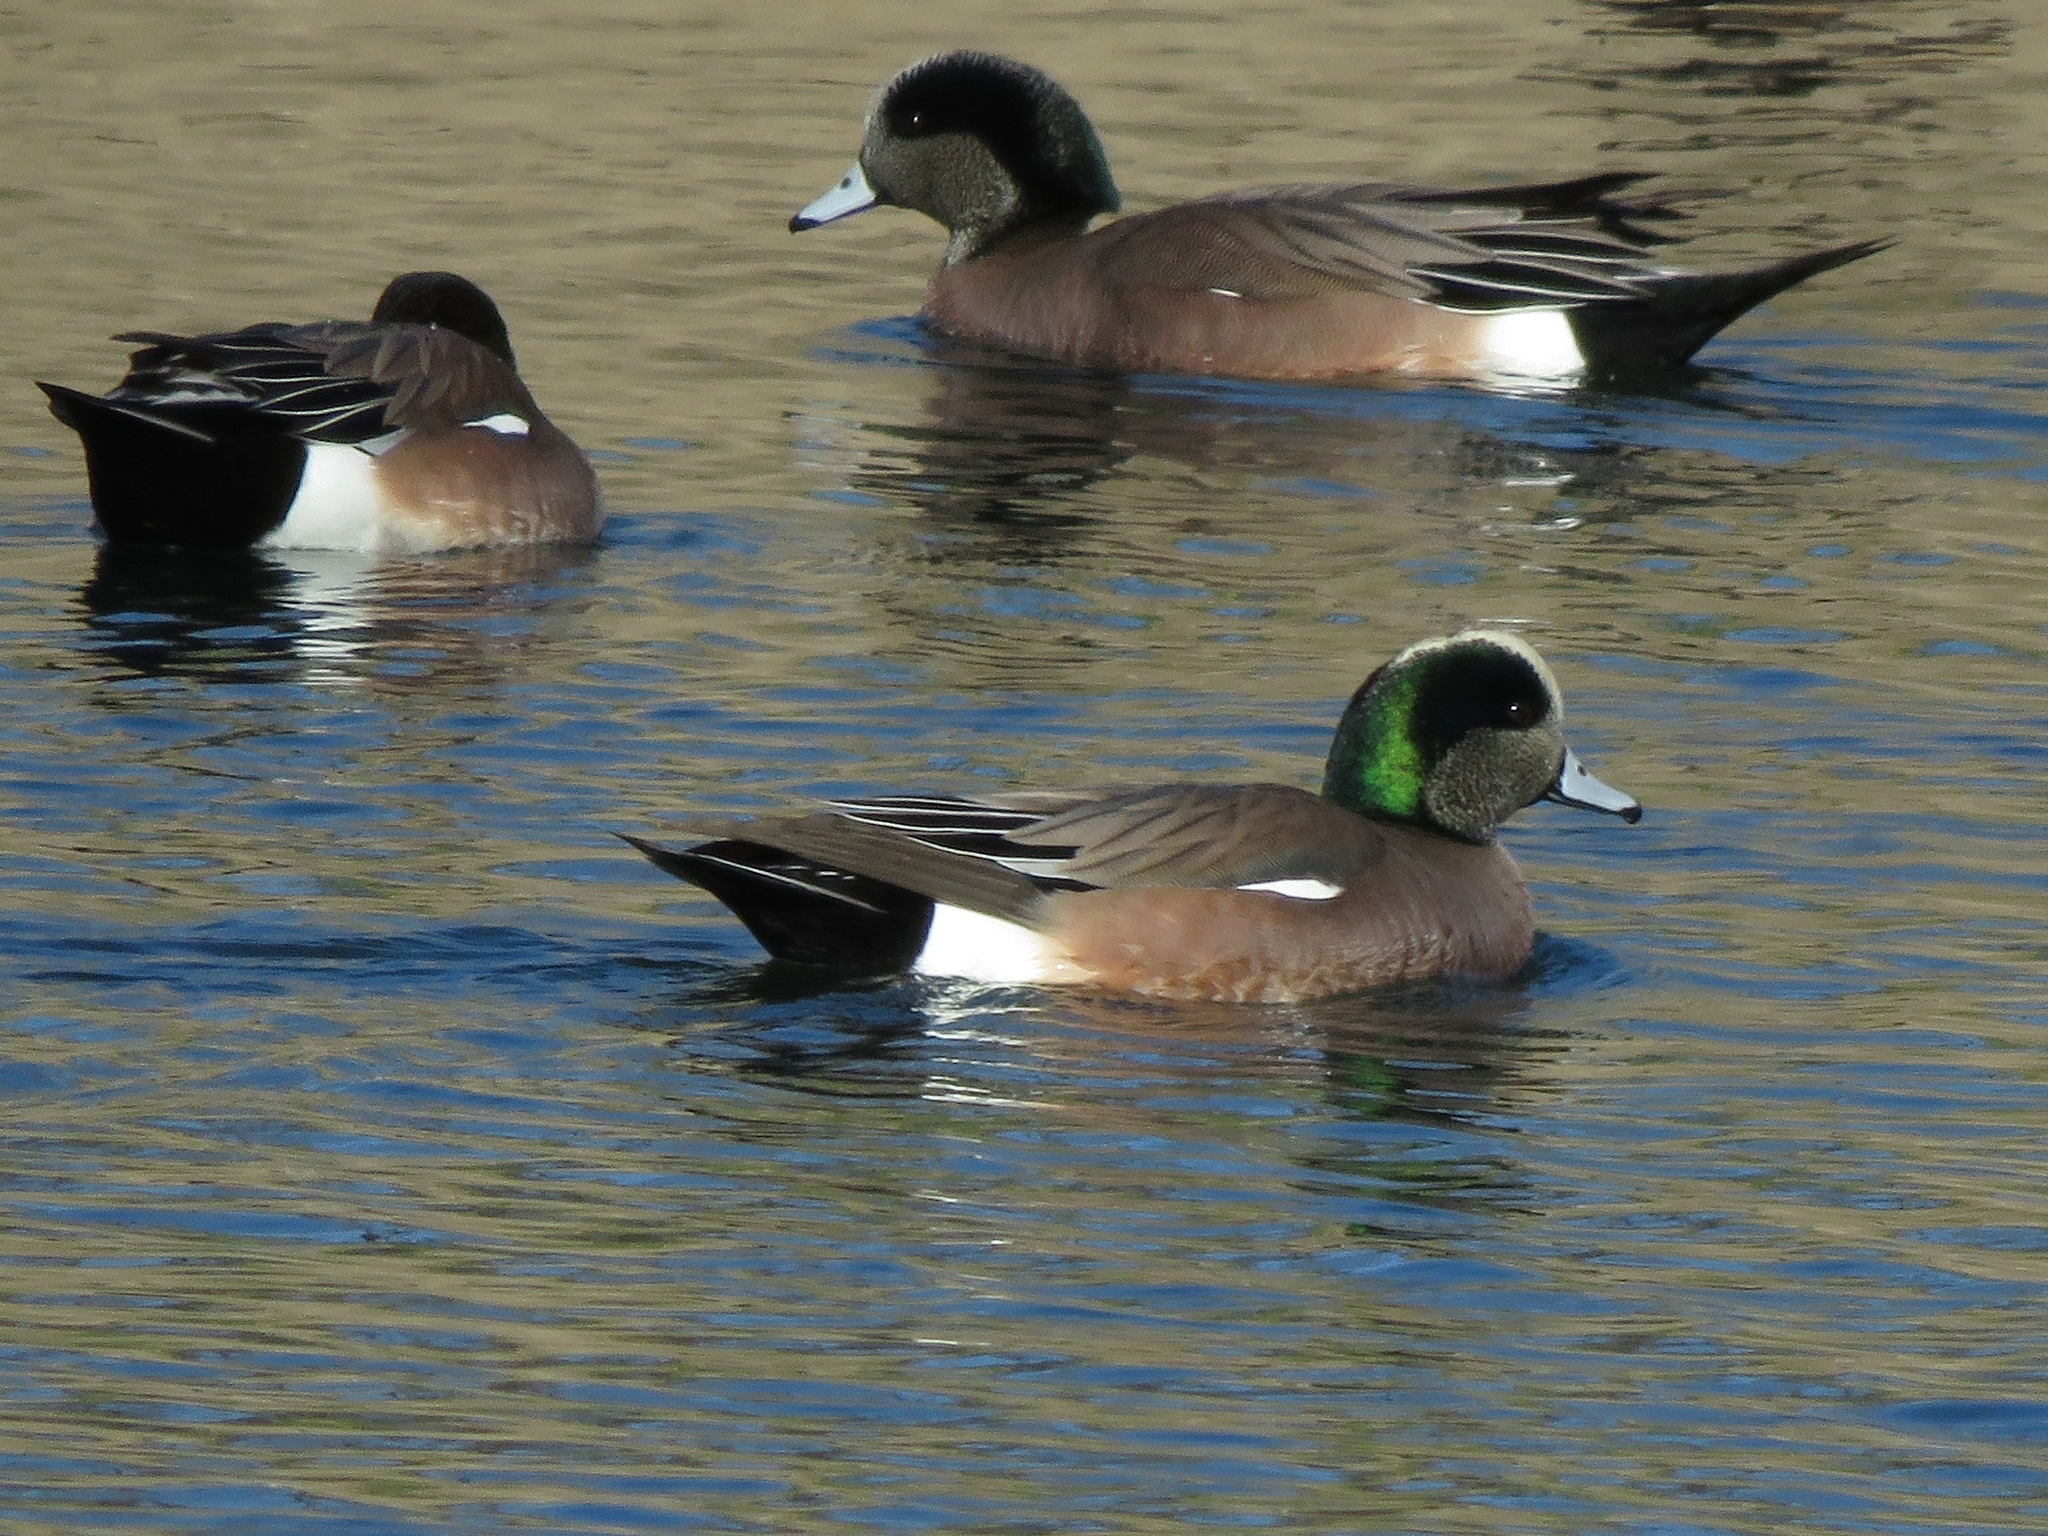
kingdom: Animalia
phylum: Chordata
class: Aves
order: Anseriformes
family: Anatidae
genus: Mareca
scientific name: Mareca americana
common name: American wigeon
